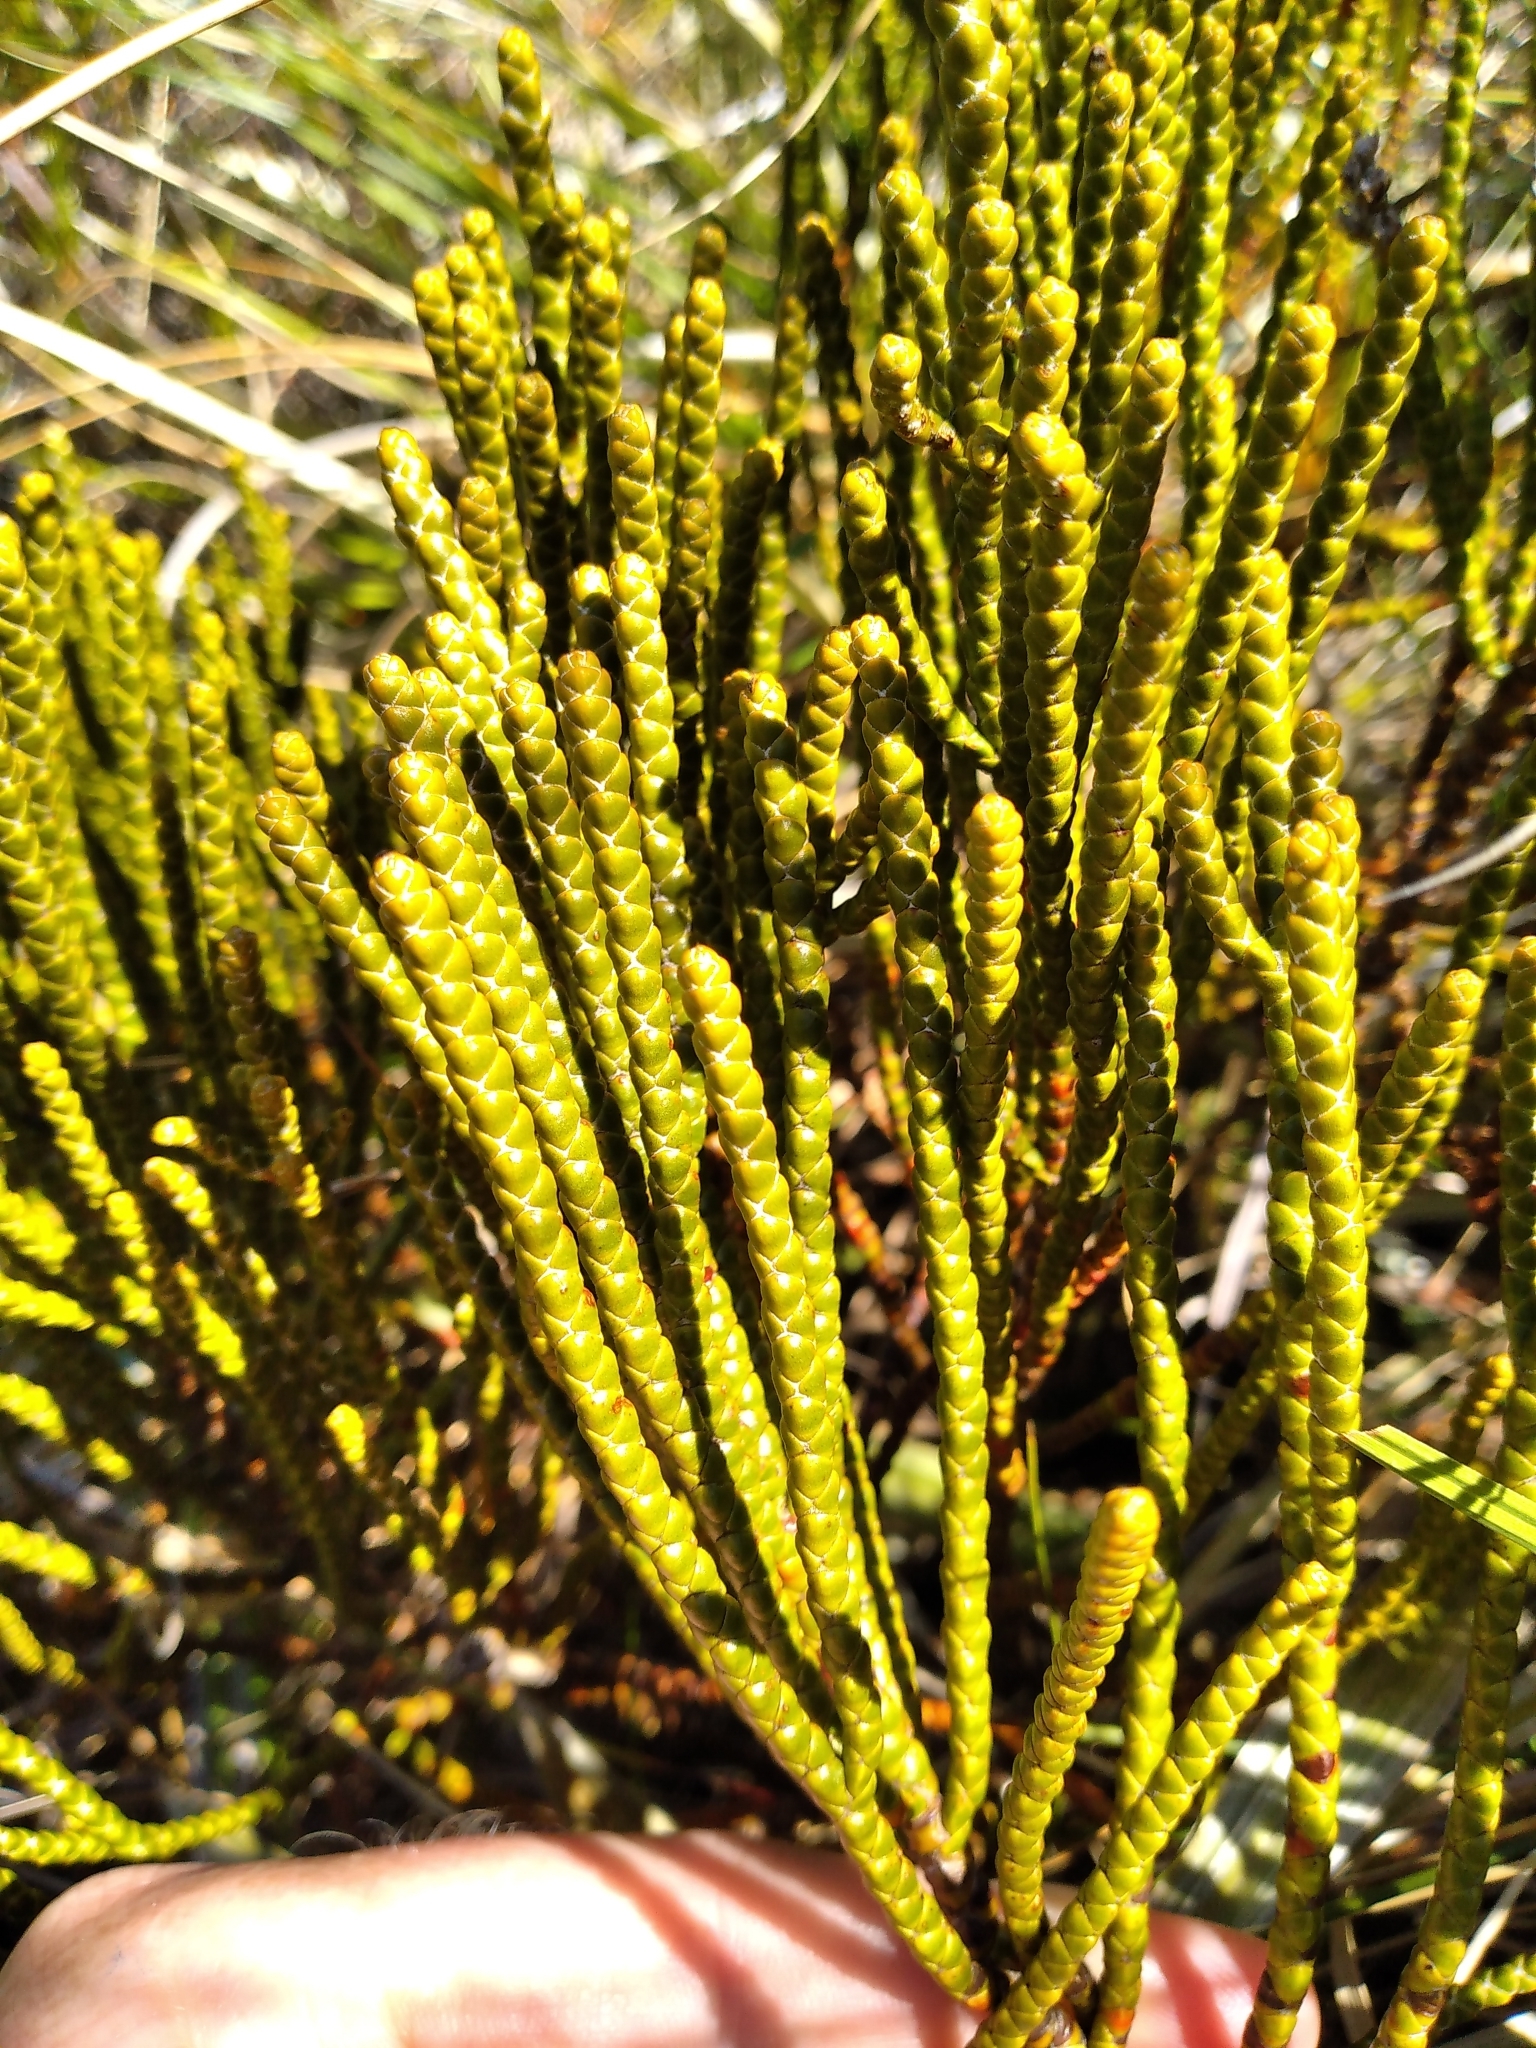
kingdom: Plantae
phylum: Tracheophyta
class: Magnoliopsida
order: Lamiales
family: Plantaginaceae
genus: Veronica
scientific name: Veronica hectorii
